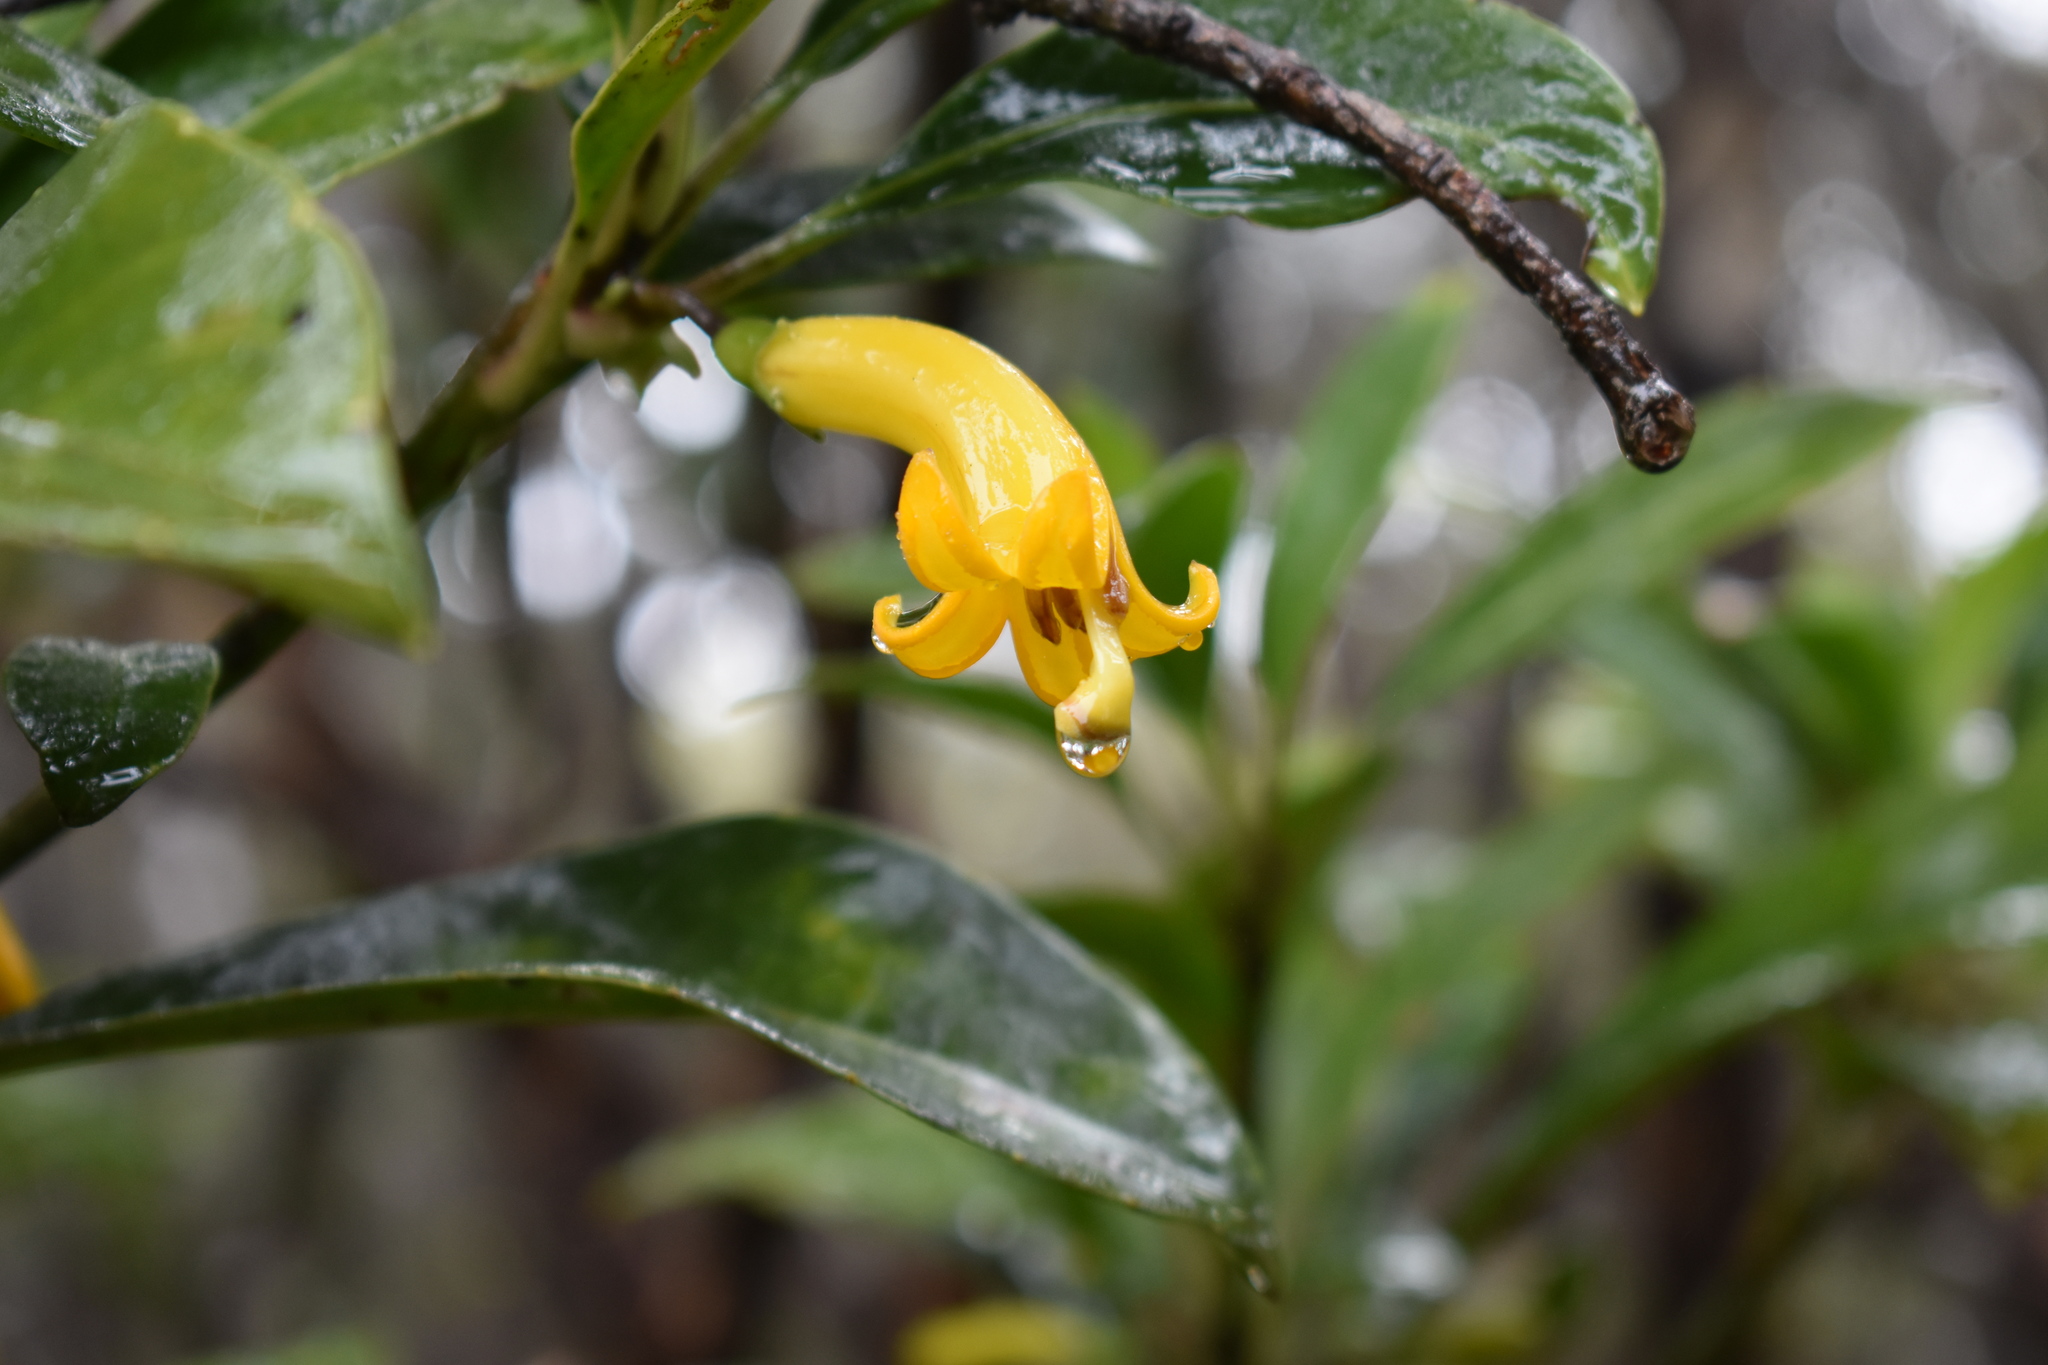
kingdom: Plantae
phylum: Tracheophyta
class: Magnoliopsida
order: Asterales
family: Goodeniaceae
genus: Scaevola
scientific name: Scaevola glabra
